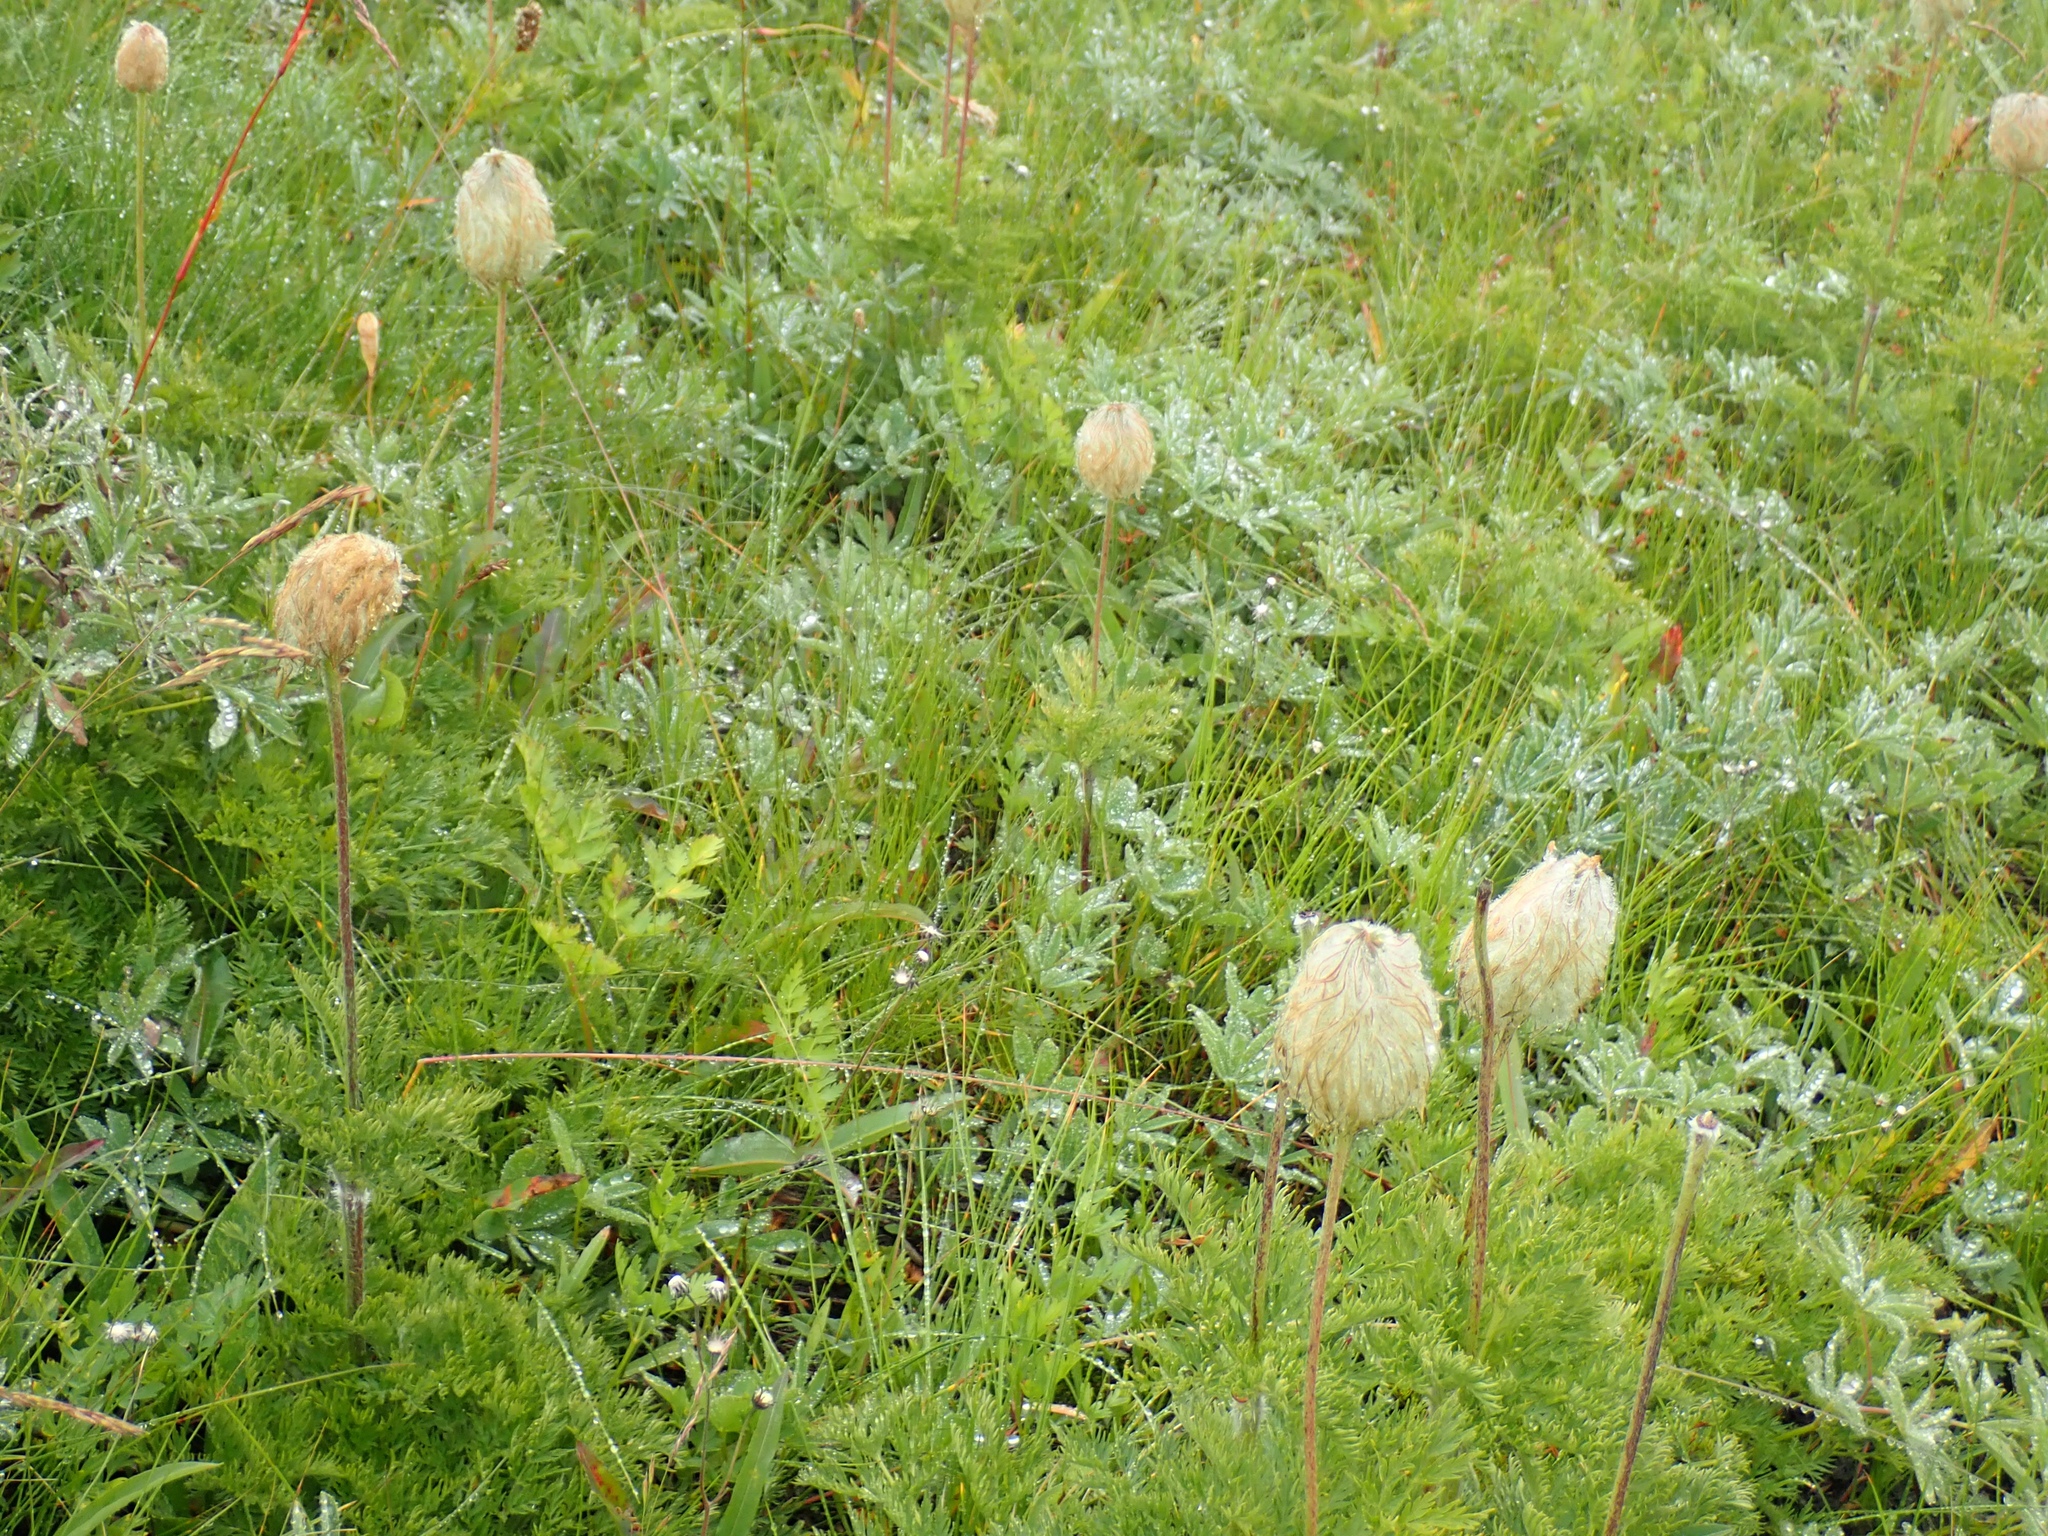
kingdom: Plantae
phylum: Tracheophyta
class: Magnoliopsida
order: Ranunculales
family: Ranunculaceae
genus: Pulsatilla
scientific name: Pulsatilla occidentalis
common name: Mountain pasqueflower
